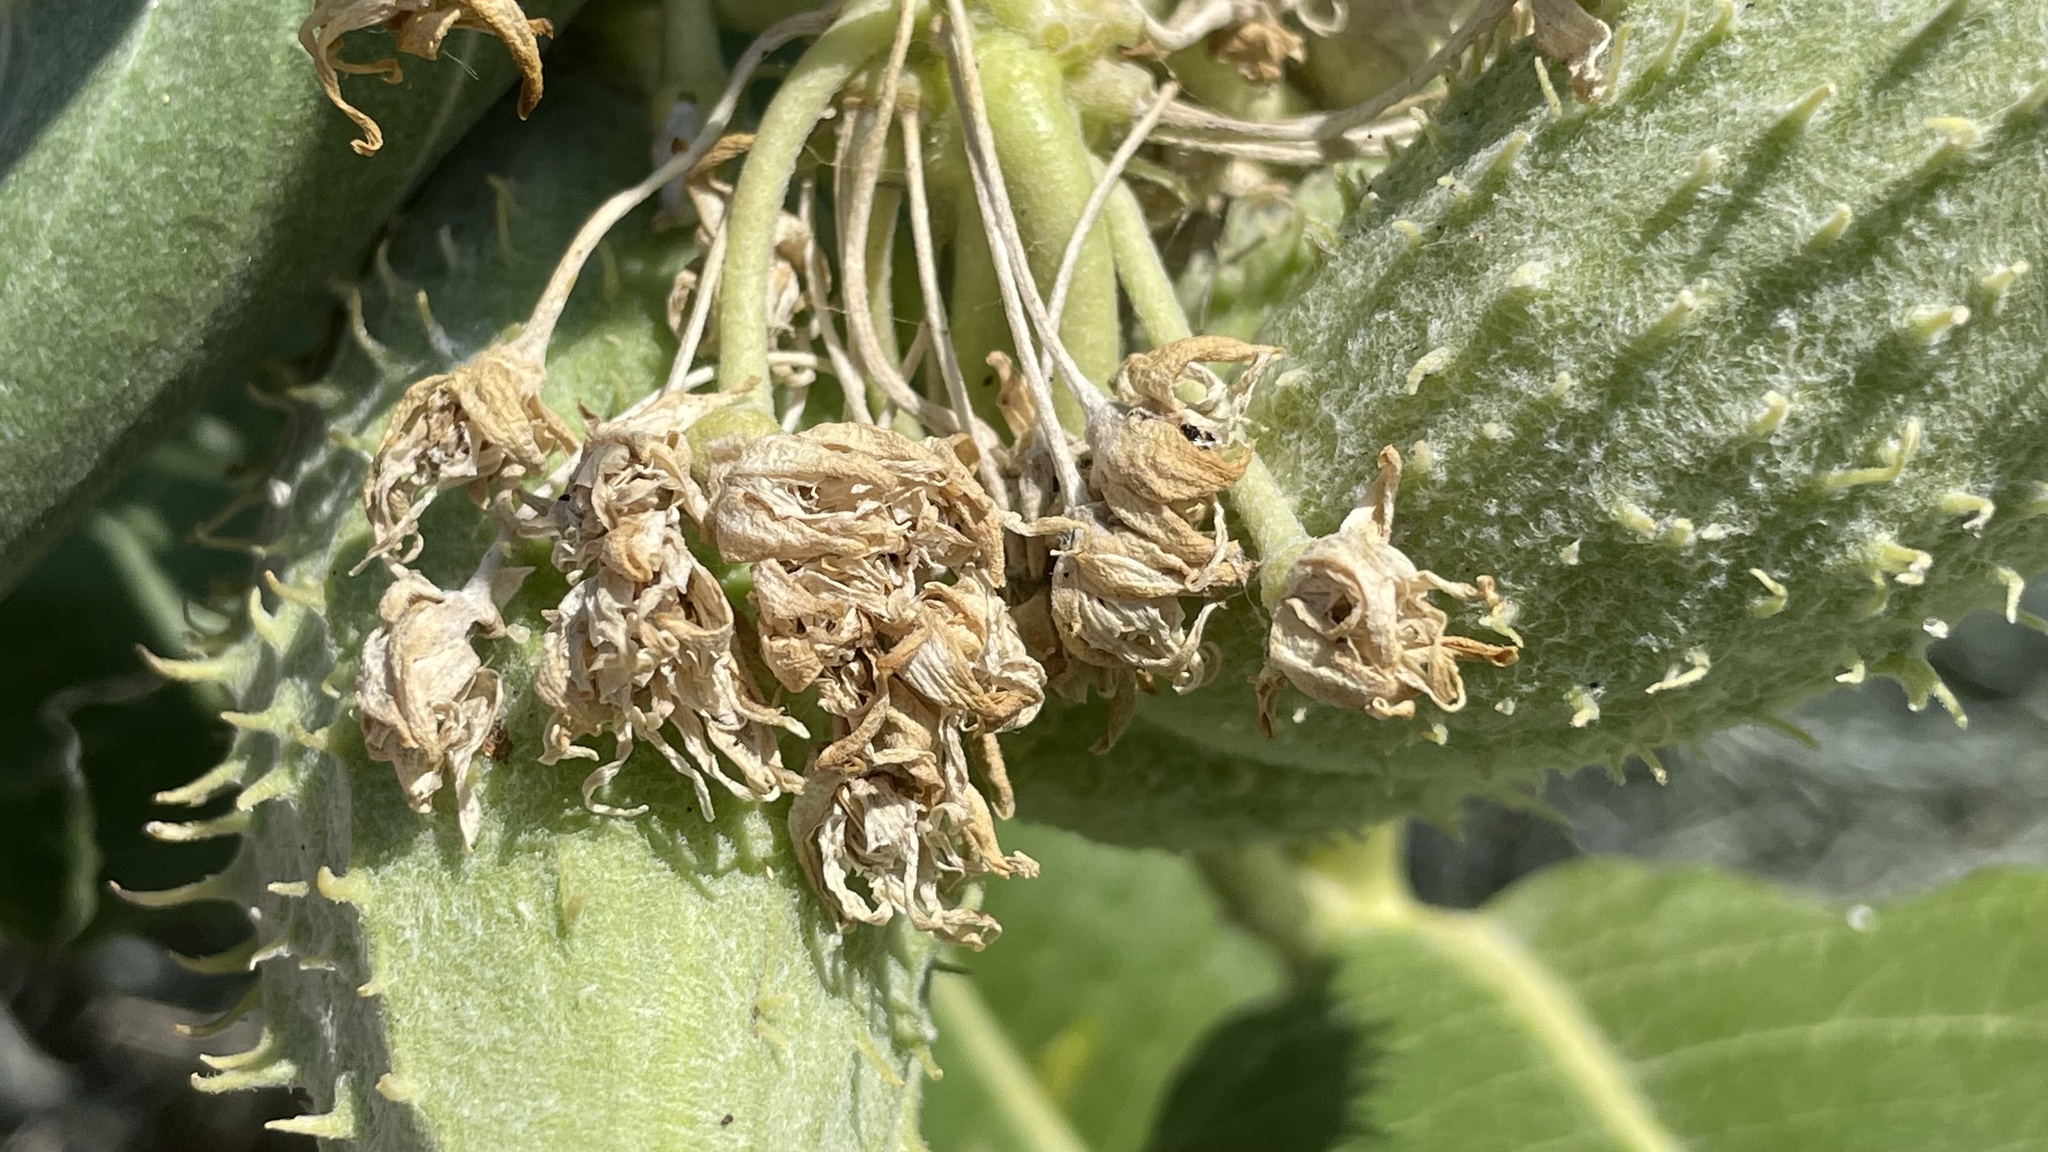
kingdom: Plantae
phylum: Tracheophyta
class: Magnoliopsida
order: Gentianales
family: Apocynaceae
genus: Asclepias
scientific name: Asclepias speciosa
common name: Showy milkweed
